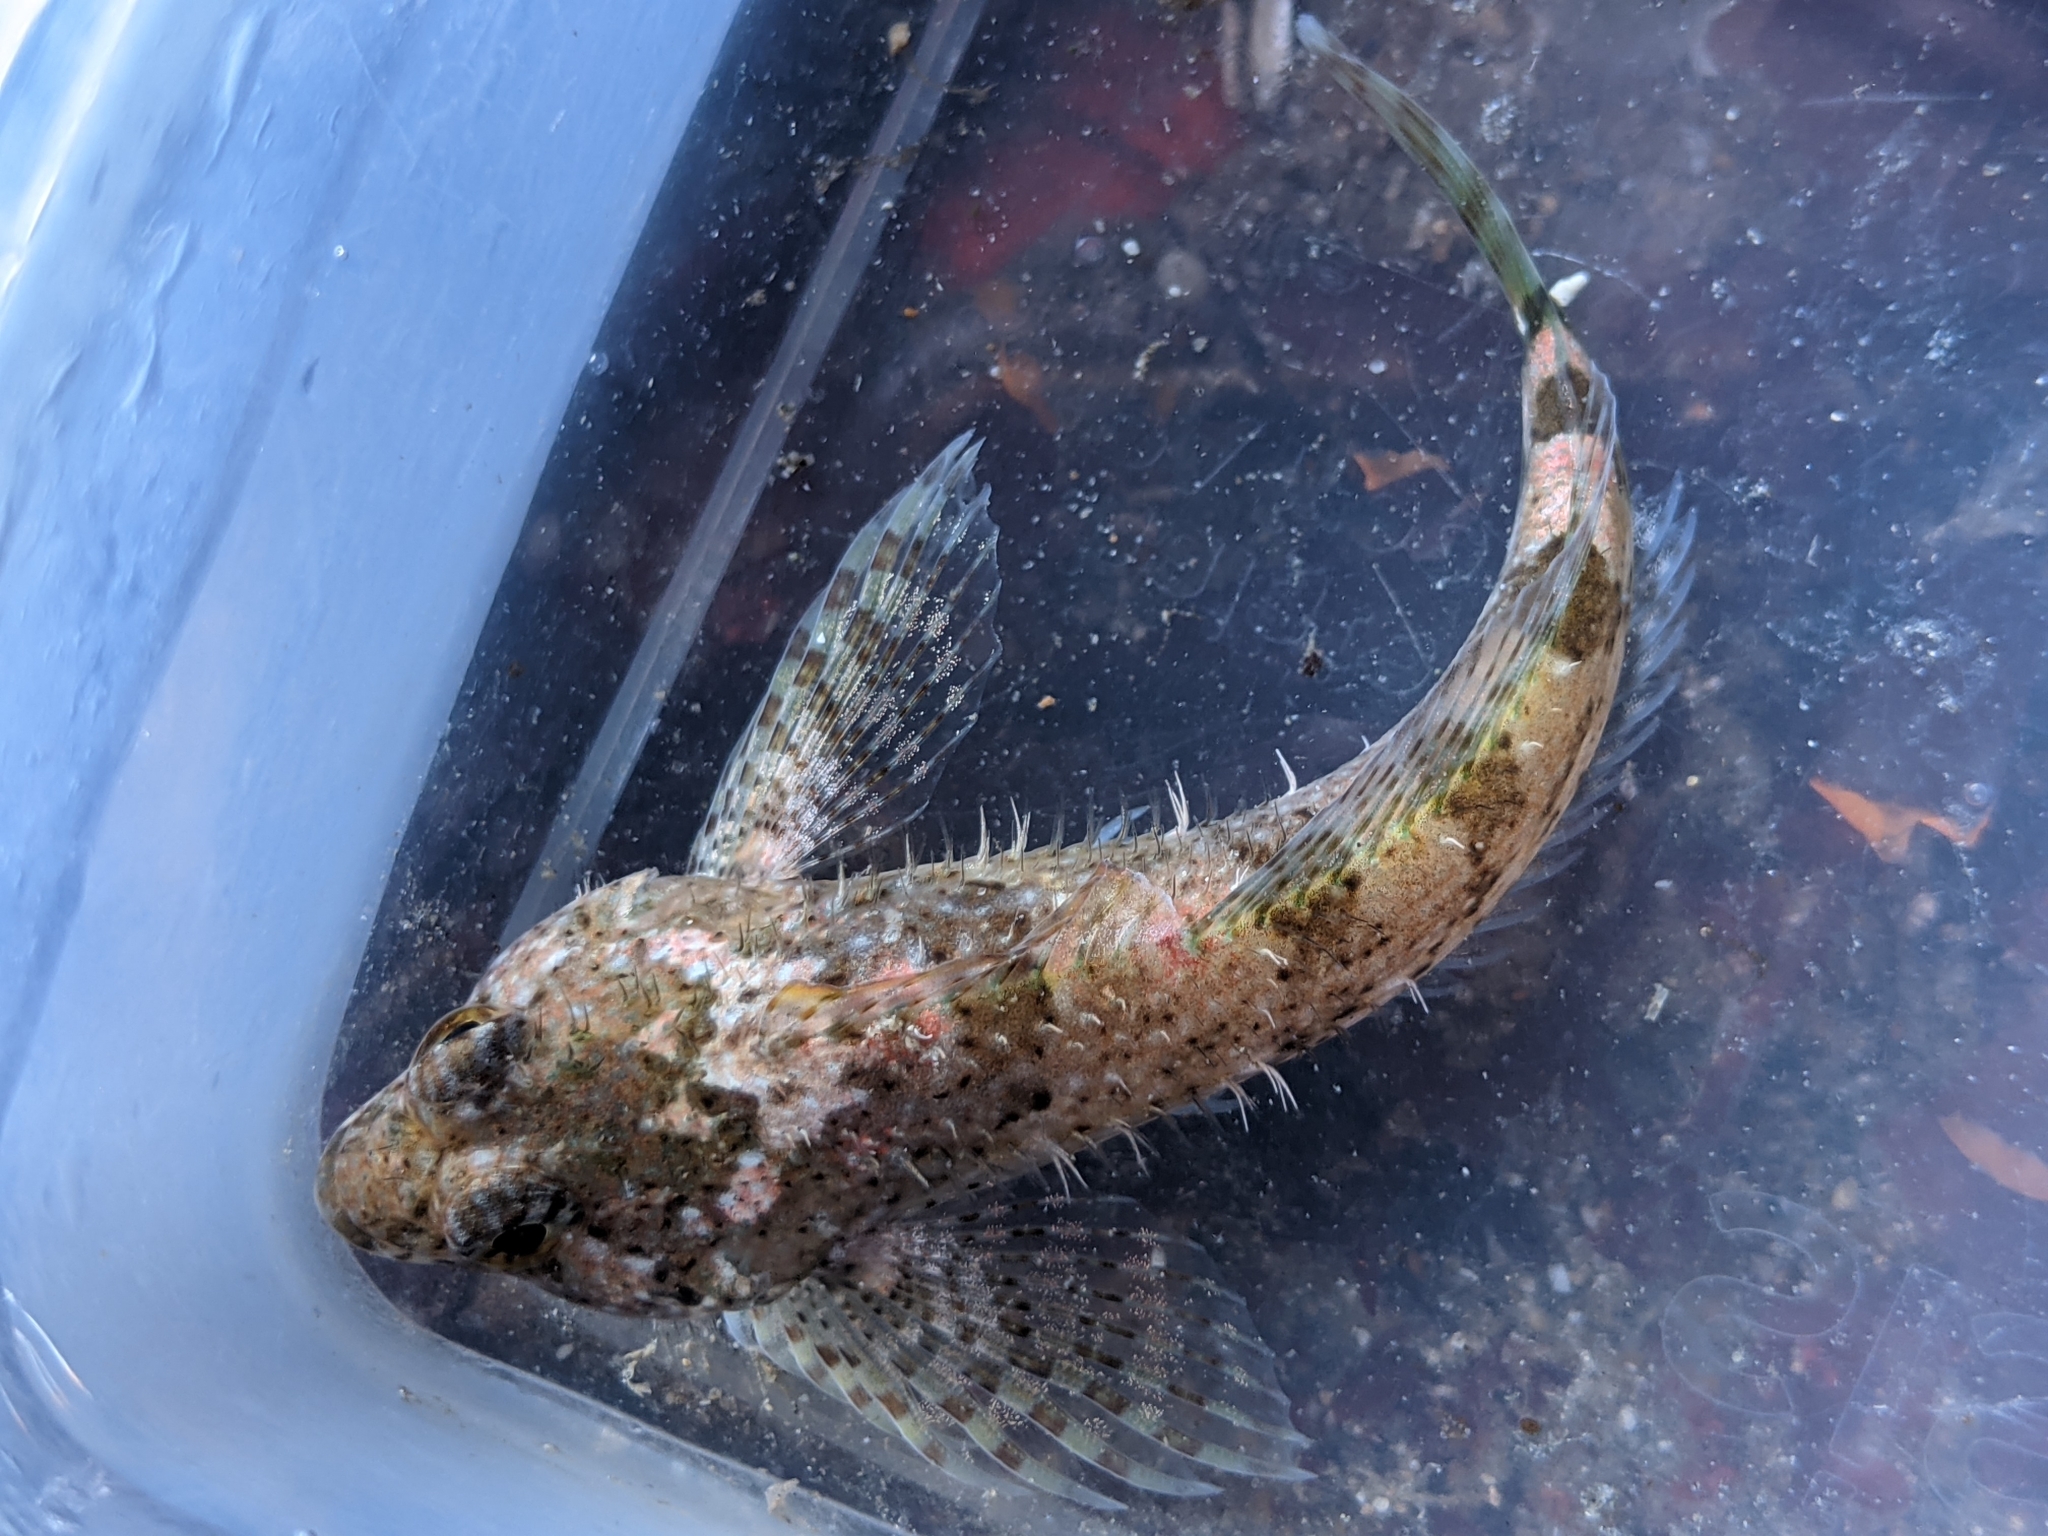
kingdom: Animalia
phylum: Chordata
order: Scorpaeniformes
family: Cottidae
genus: Clinocottus
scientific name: Clinocottus analis
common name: Woolly sculpin
